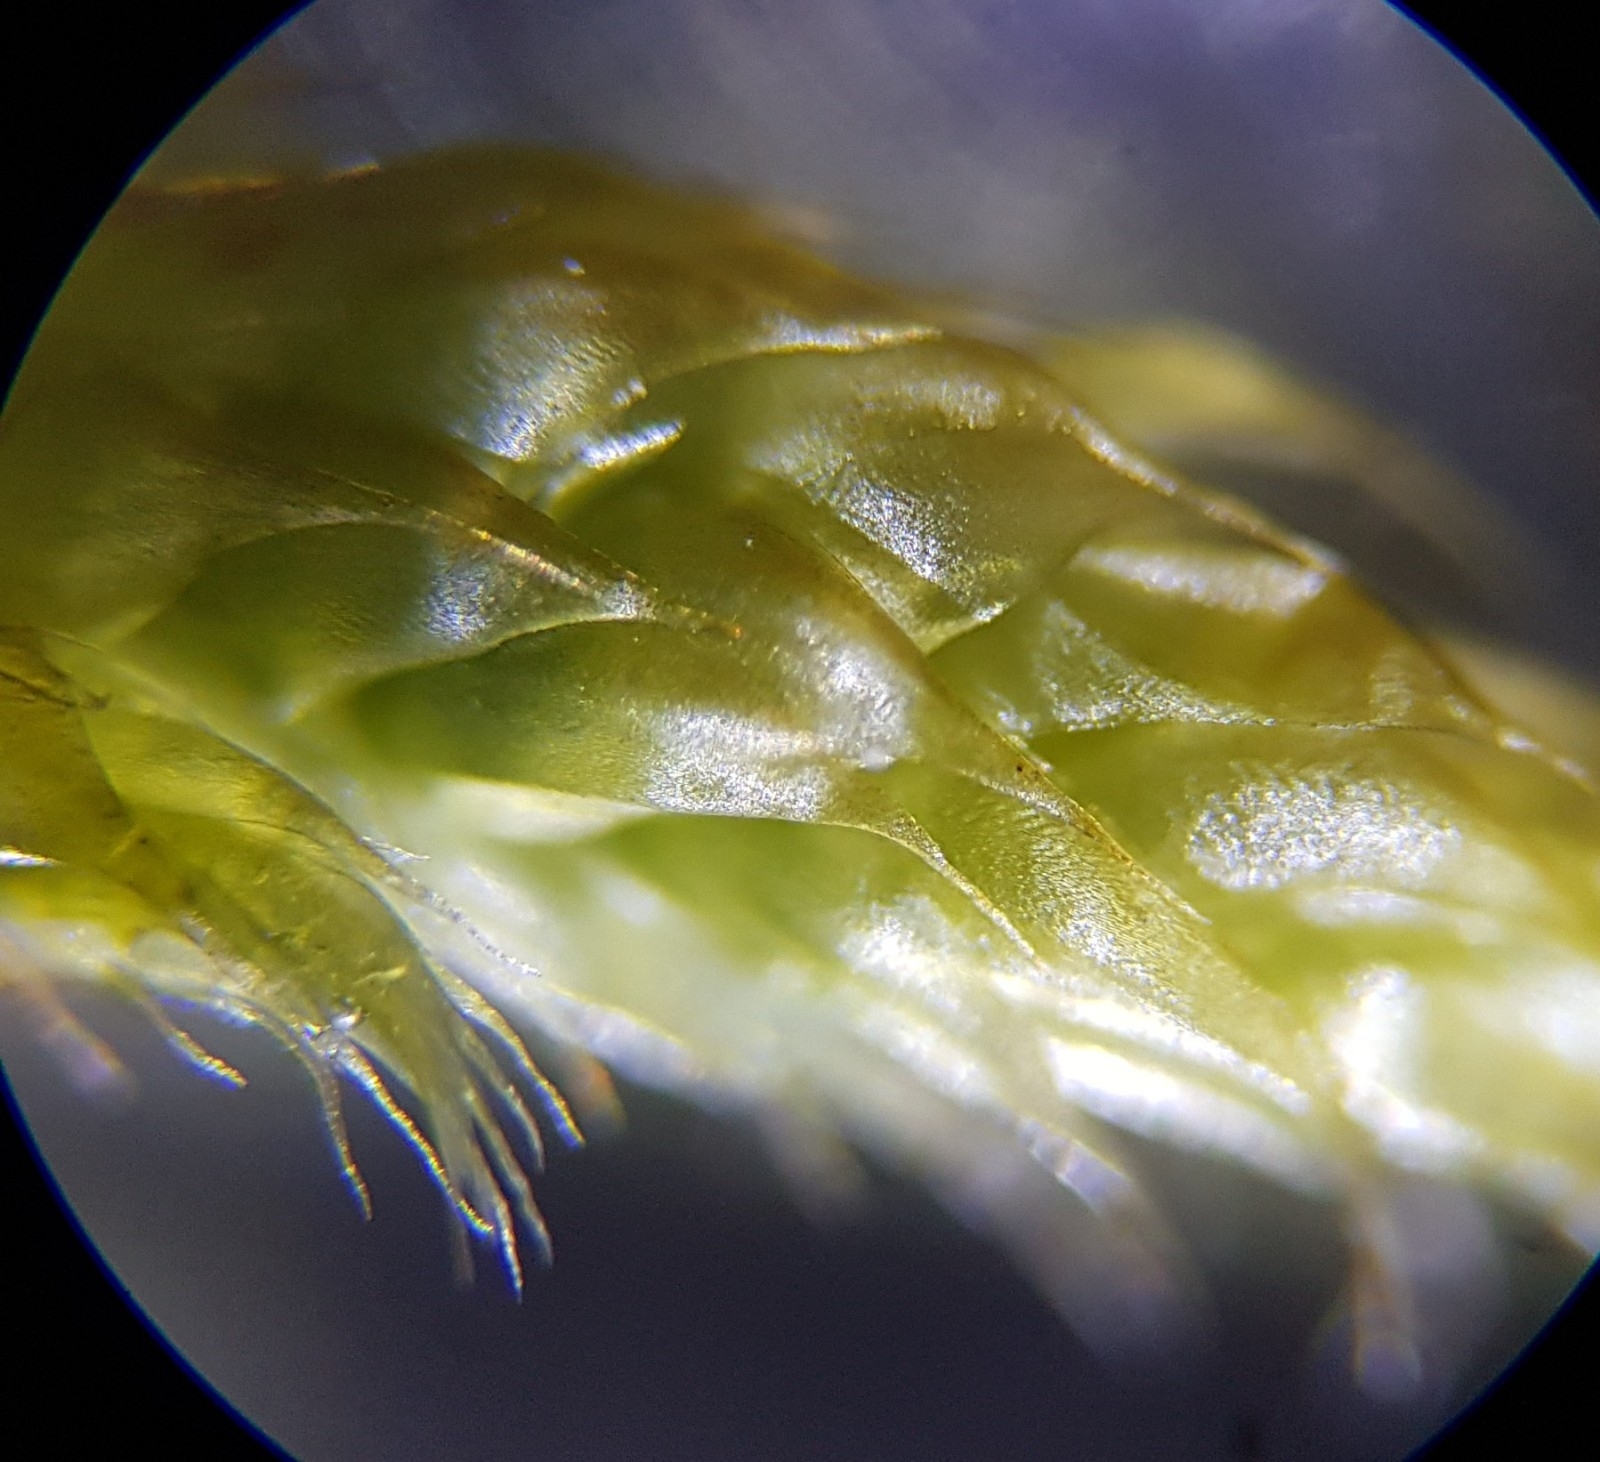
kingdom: Plantae
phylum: Bryophyta
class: Bryopsida
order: Hypnales
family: Hypnaceae
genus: Hypnum
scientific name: Hypnum cupressiforme
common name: Cypress-leaved plait-moss
